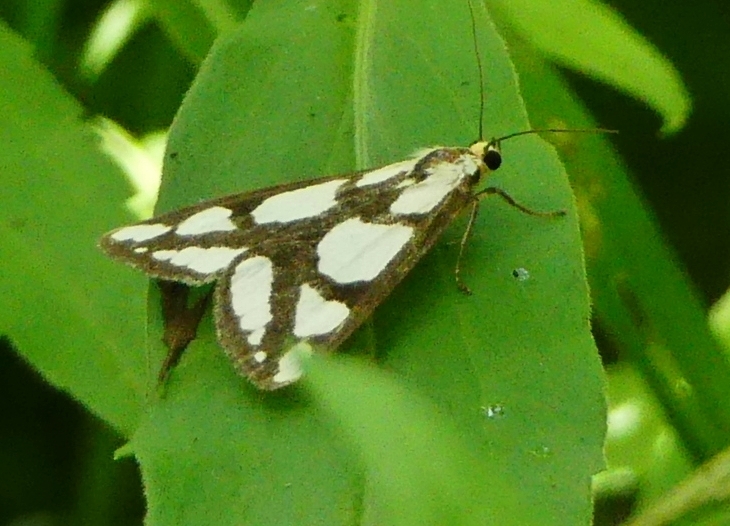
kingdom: Animalia
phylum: Arthropoda
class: Insecta
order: Lepidoptera
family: Erebidae
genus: Haploa
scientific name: Haploa lecontei
